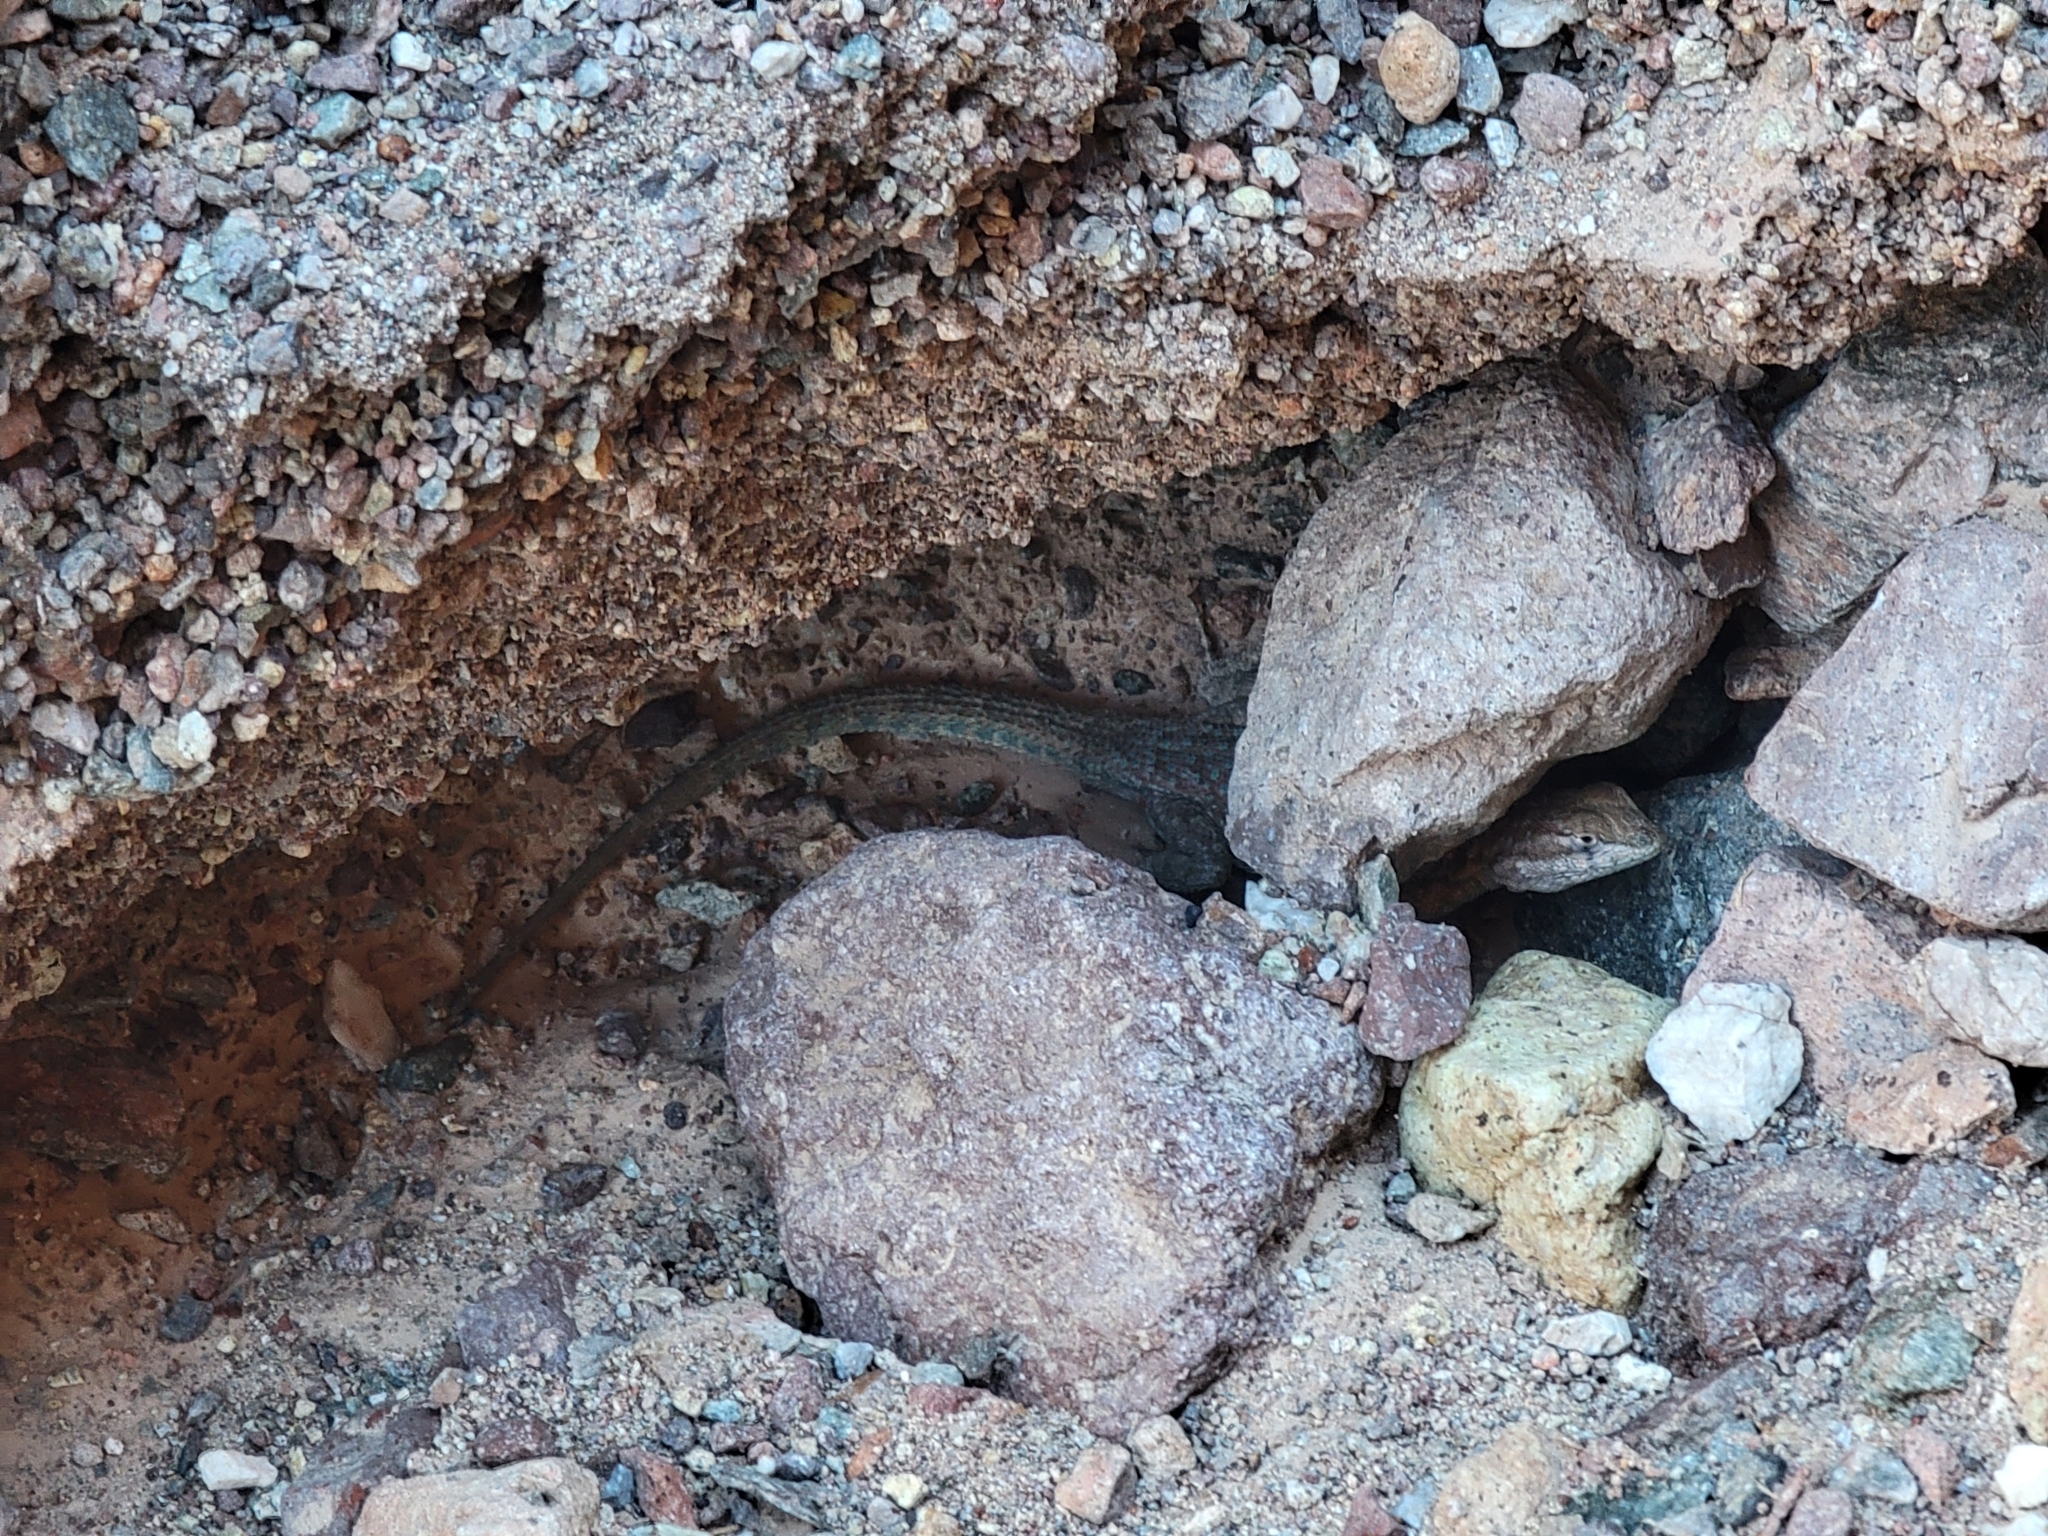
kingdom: Animalia
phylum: Chordata
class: Squamata
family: Phrynosomatidae
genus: Uta
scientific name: Uta stansburiana
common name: Side-blotched lizard
